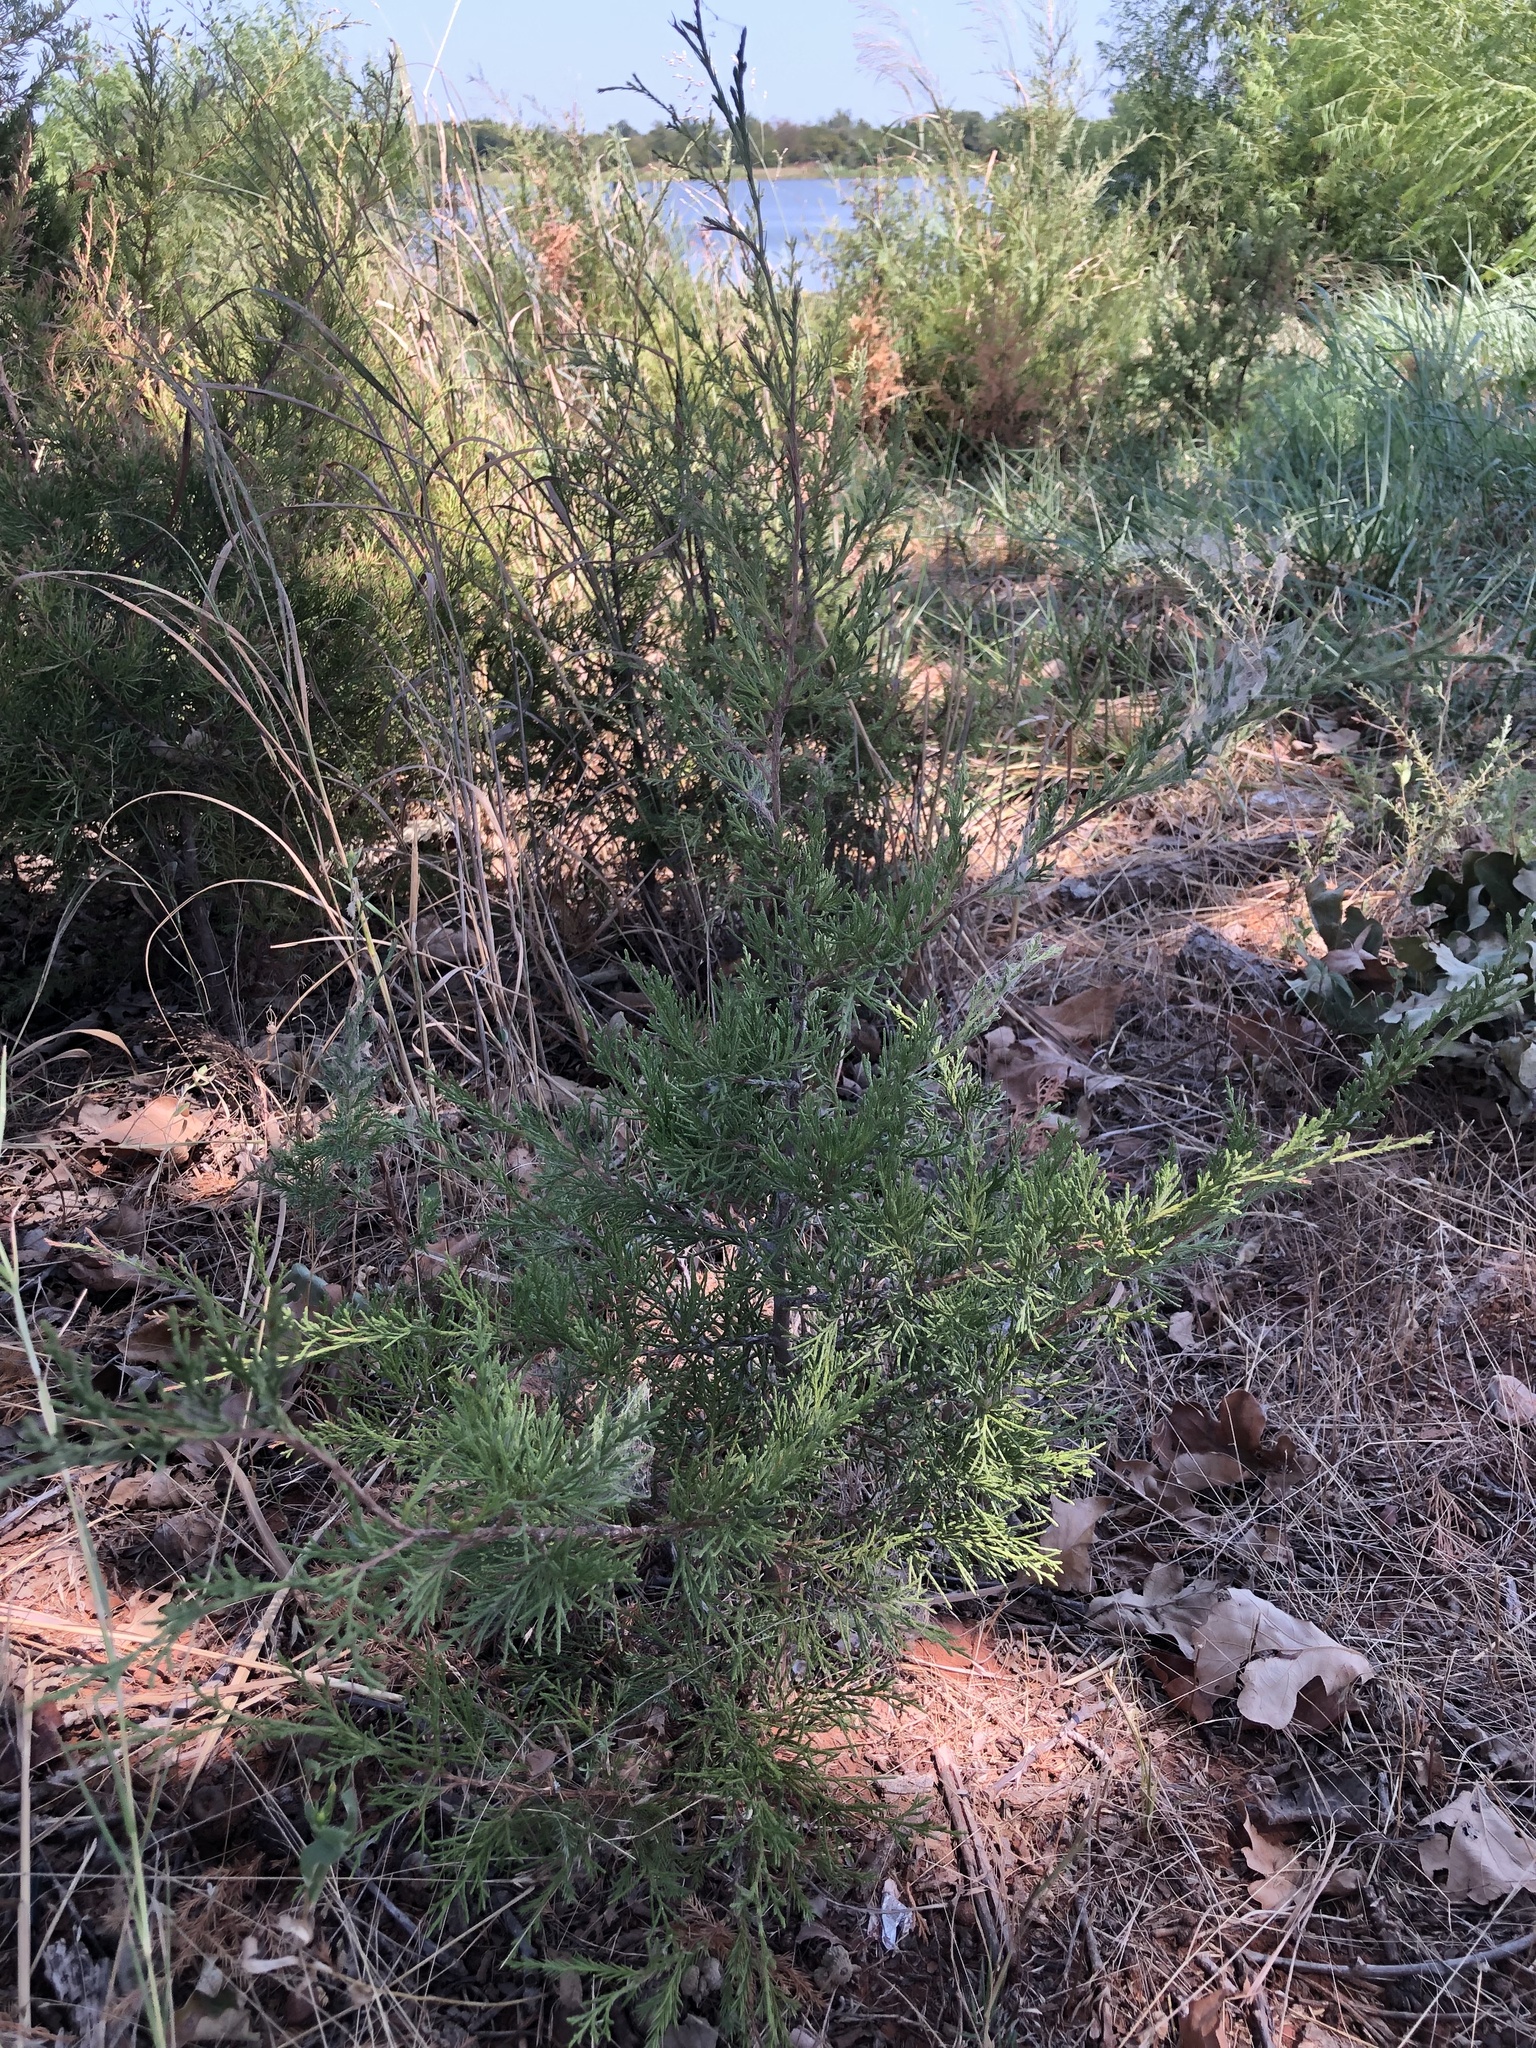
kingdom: Plantae
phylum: Tracheophyta
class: Pinopsida
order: Pinales
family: Cupressaceae
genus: Juniperus
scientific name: Juniperus virginiana
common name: Red juniper
